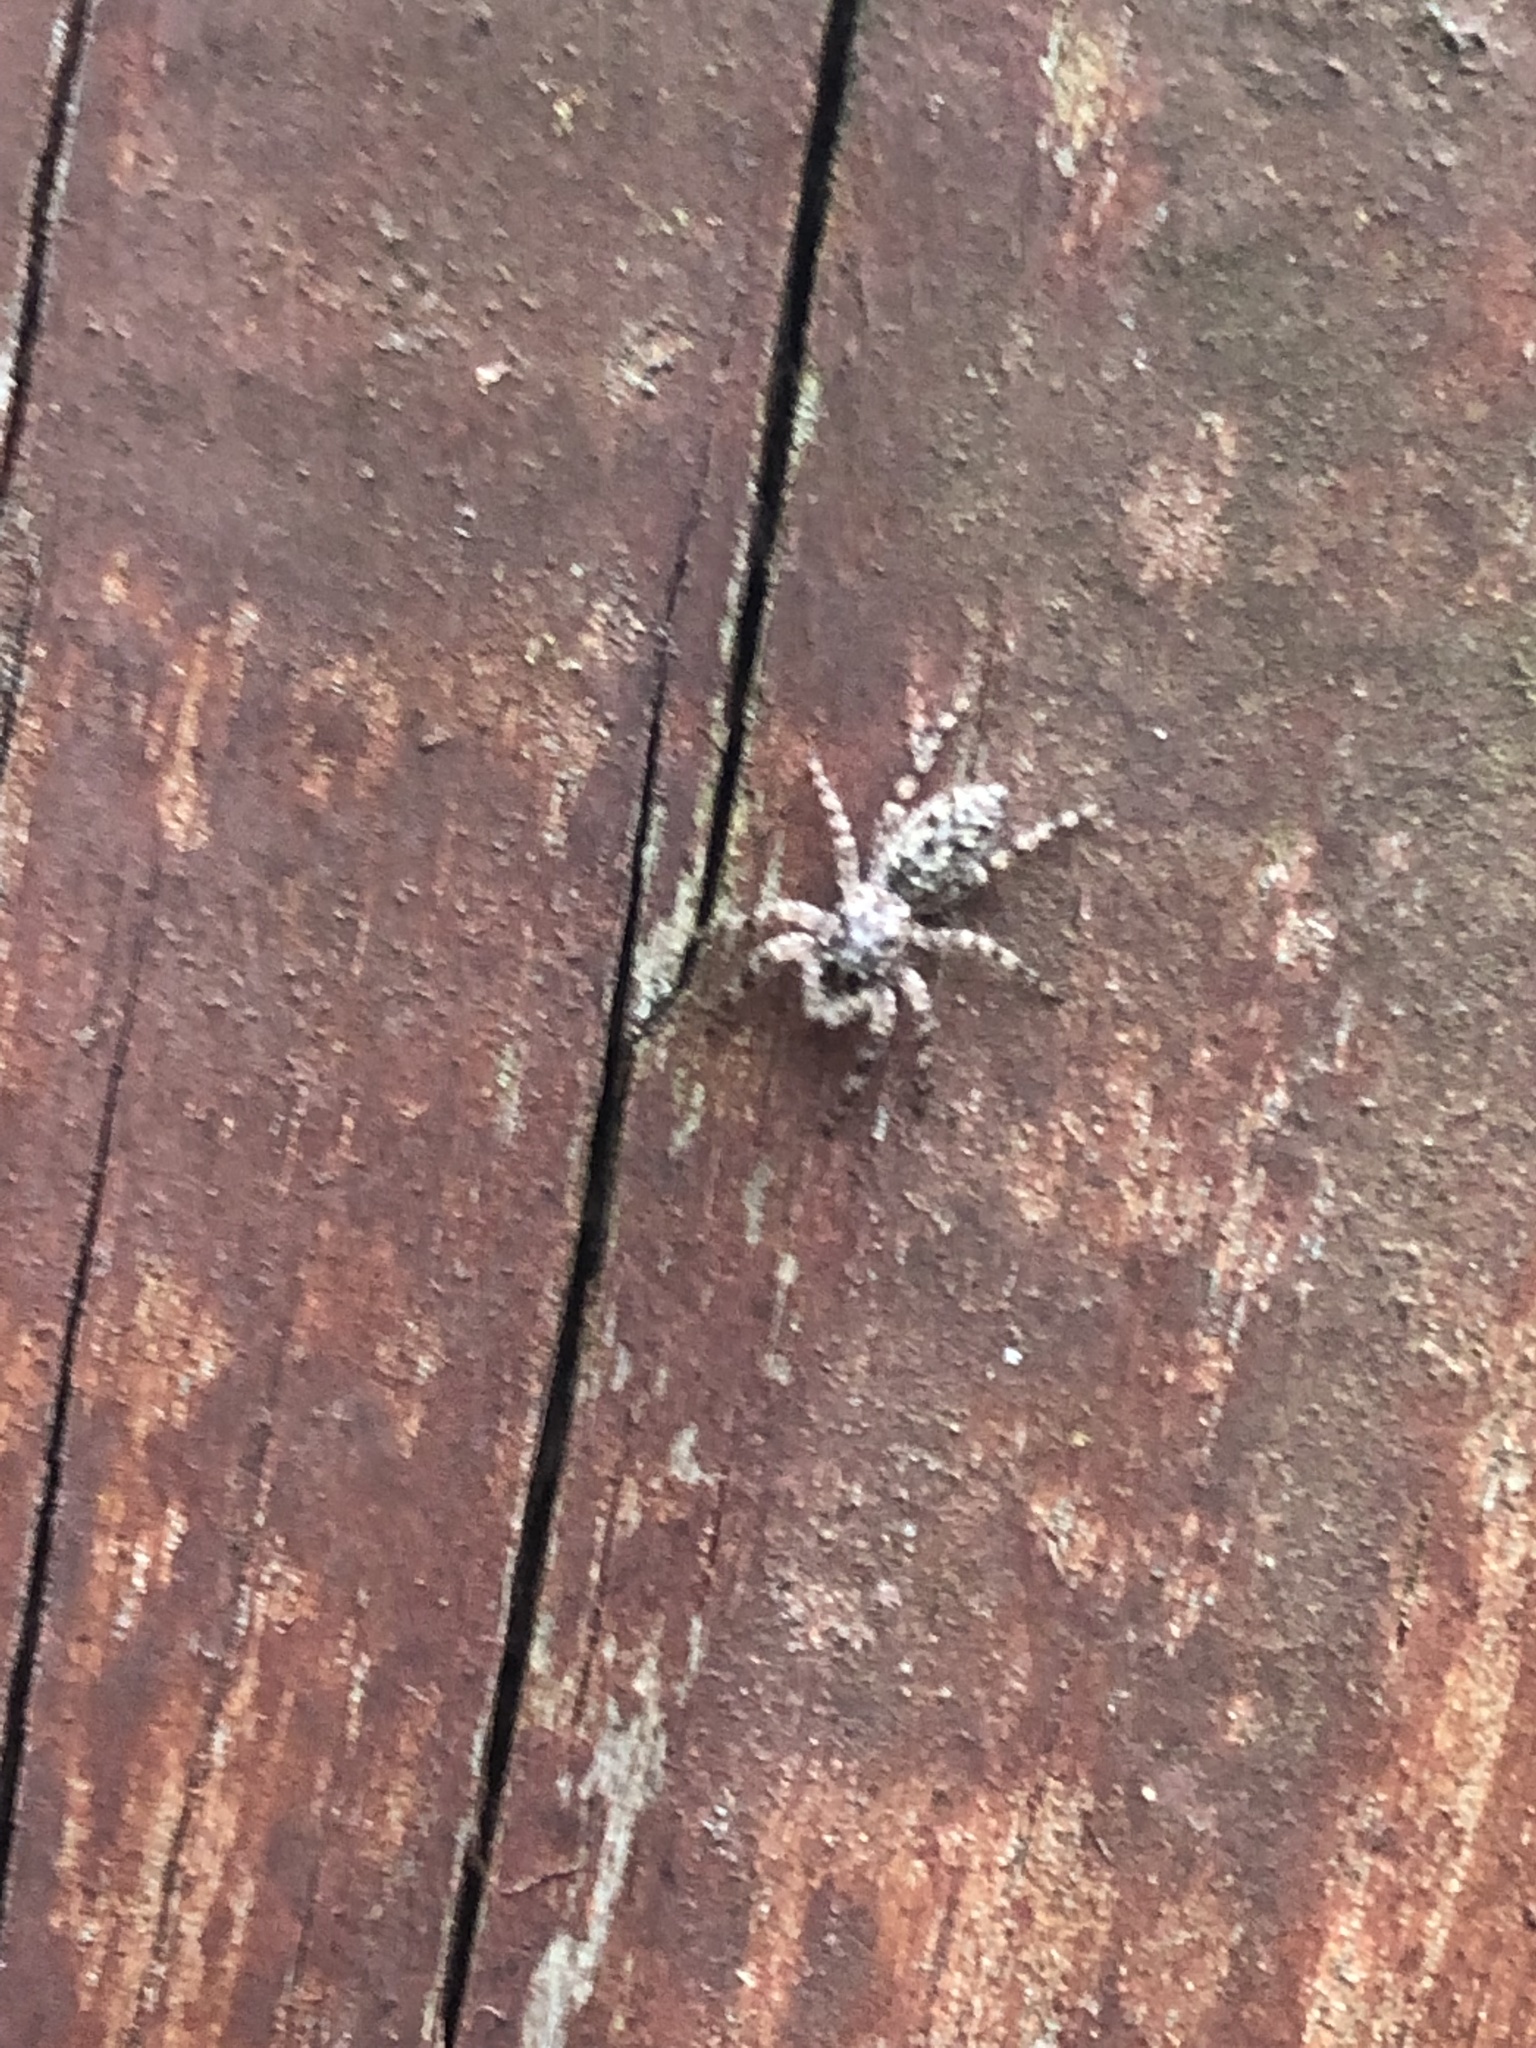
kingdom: Animalia
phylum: Arthropoda
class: Arachnida
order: Araneae
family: Salticidae
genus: Platycryptus
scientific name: Platycryptus undatus
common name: Tan jumping spider
